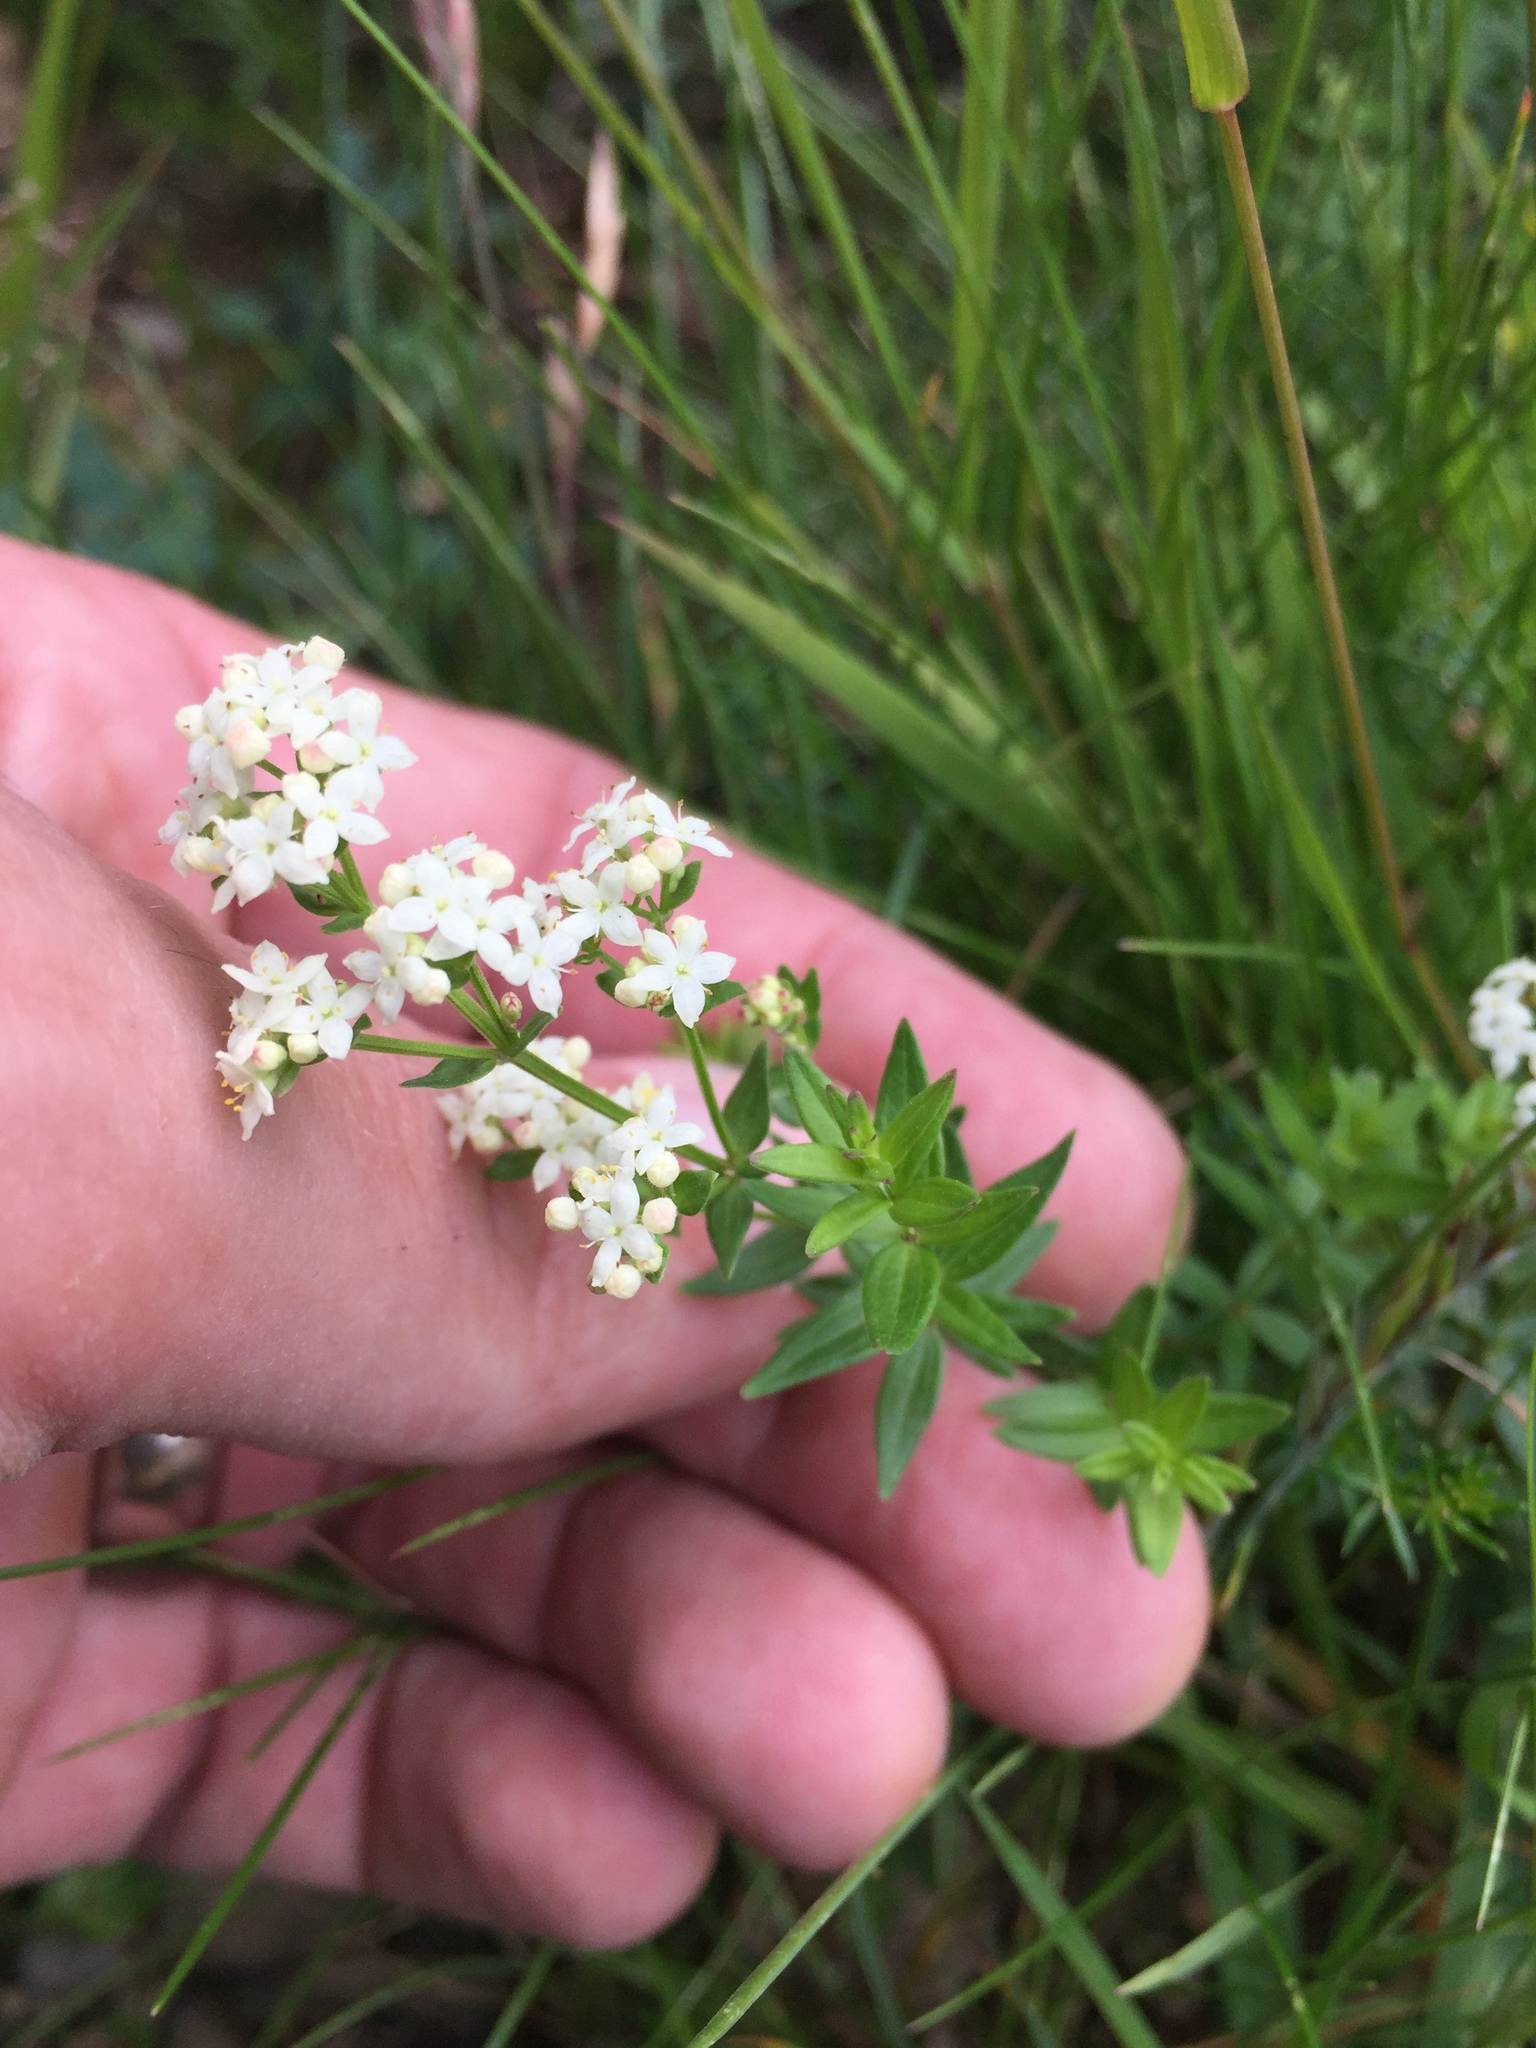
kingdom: Plantae
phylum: Tracheophyta
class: Magnoliopsida
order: Gentianales
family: Rubiaceae
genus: Galium
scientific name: Galium boreale
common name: Northern bedstraw
